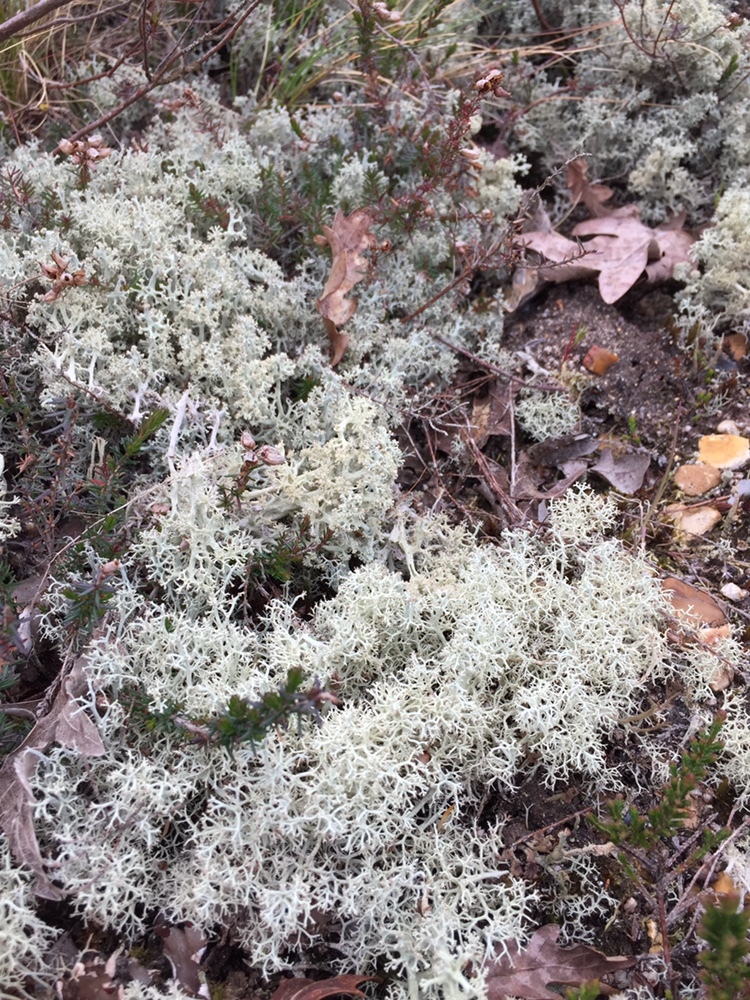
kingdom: Fungi
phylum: Ascomycota
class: Lecanoromycetes
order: Lecanorales
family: Cladoniaceae
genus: Cladonia
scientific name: Cladonia portentosa
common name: Reindeer lichen
